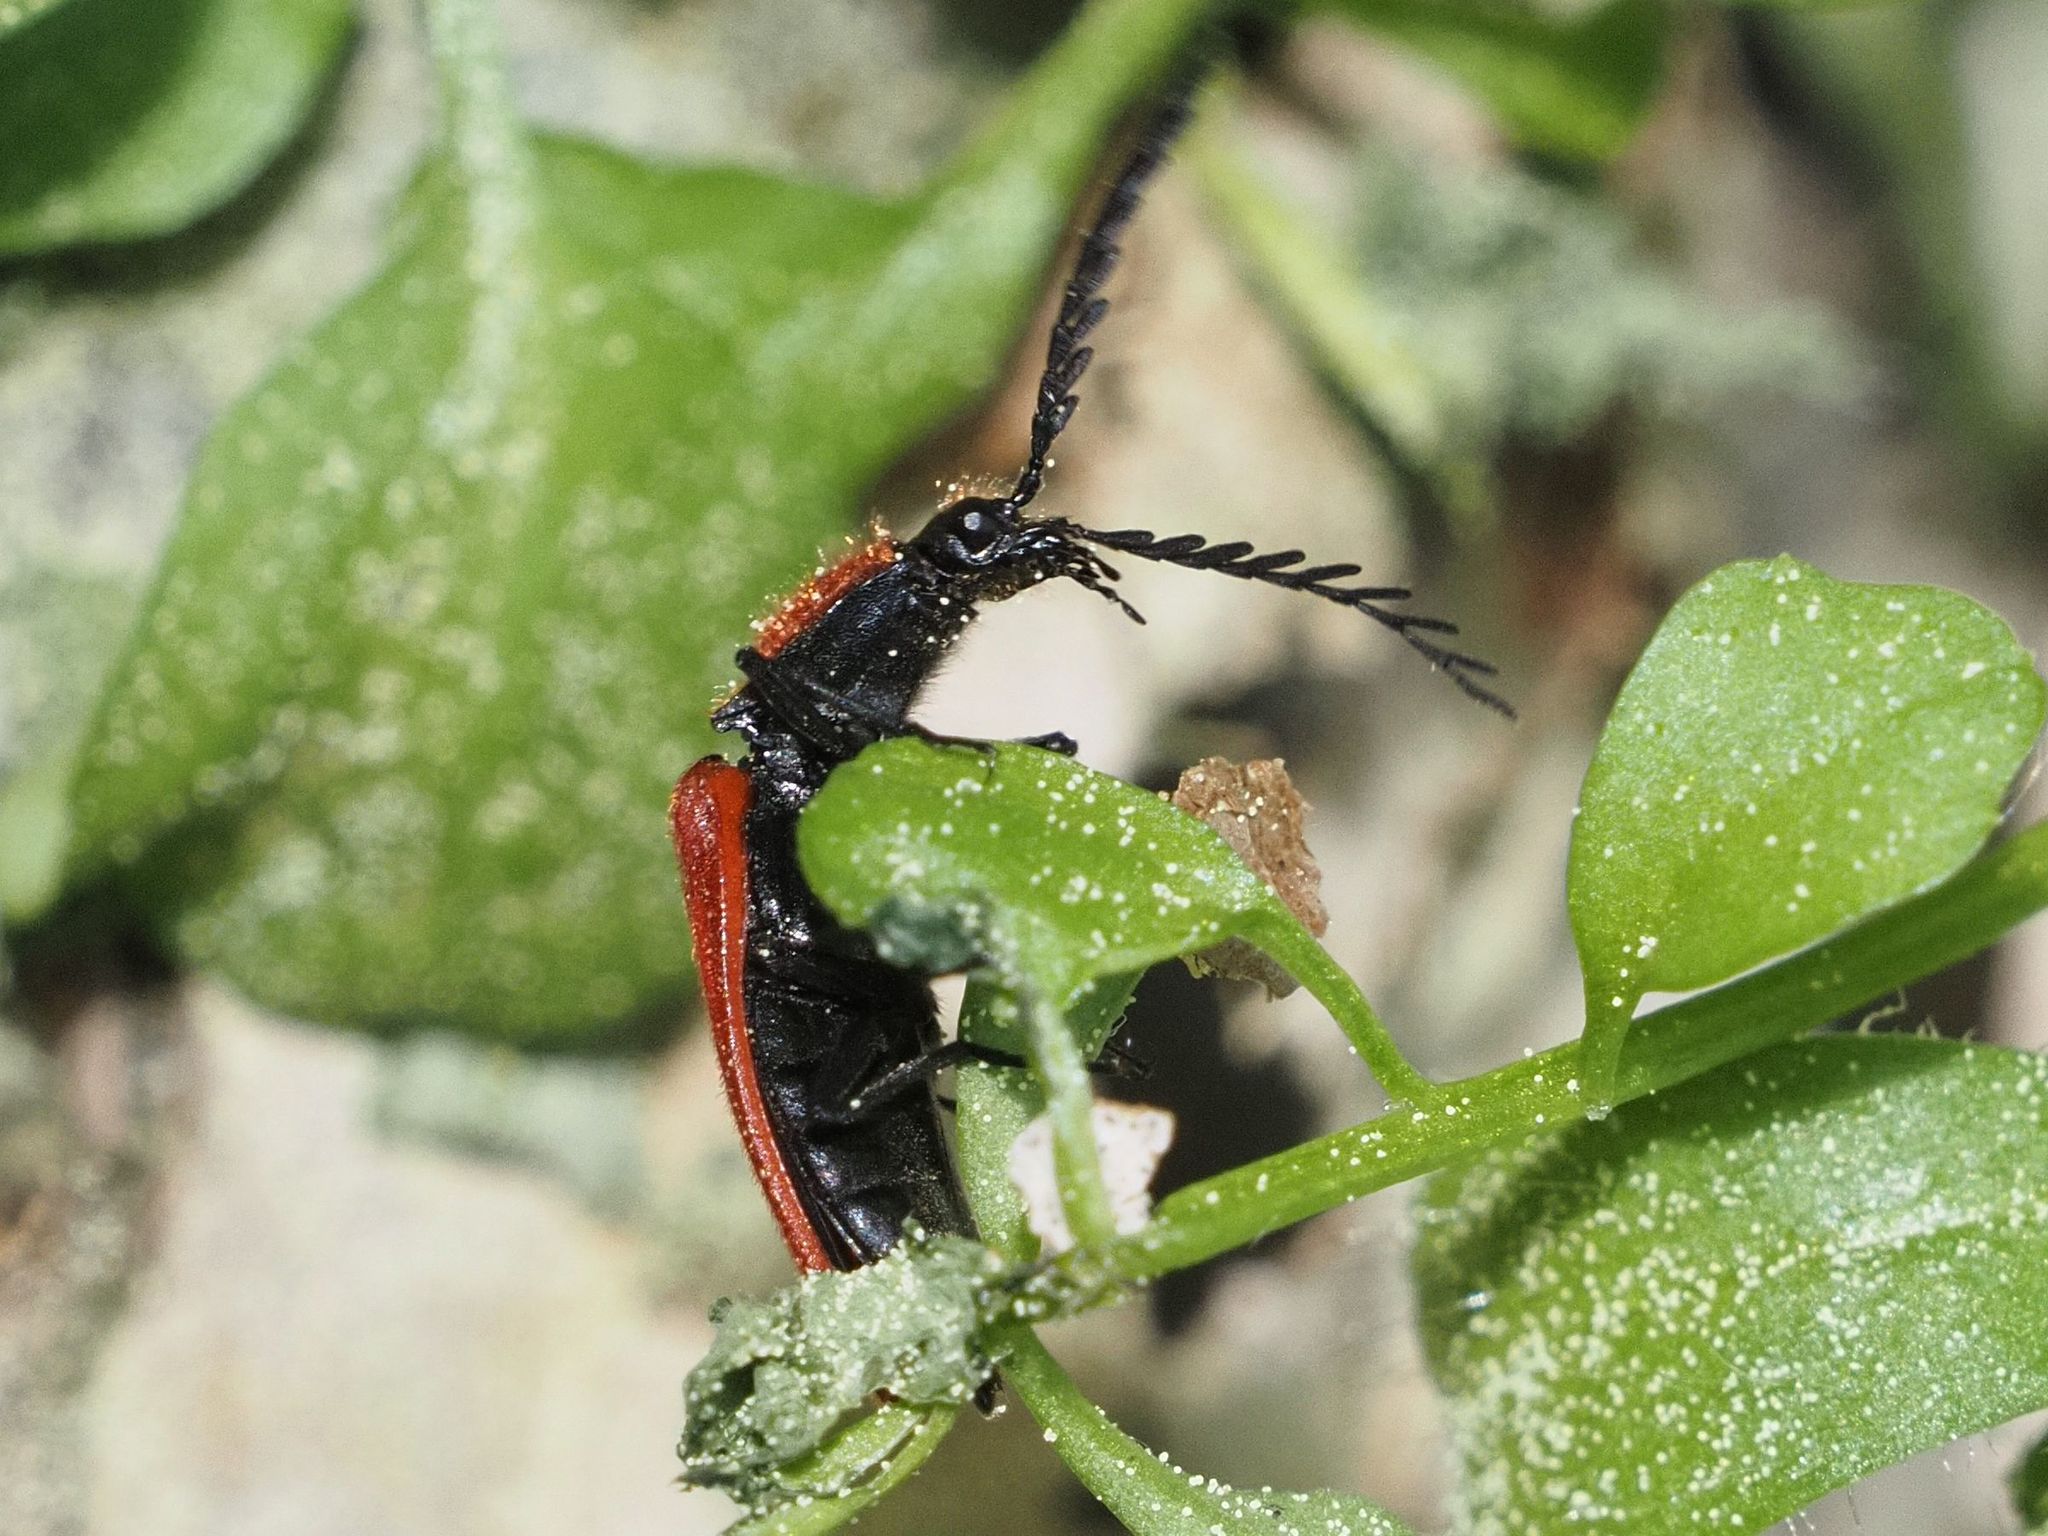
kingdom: Animalia
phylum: Arthropoda
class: Insecta
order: Coleoptera
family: Elateridae
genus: Anostirus
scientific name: Anostirus purpureus
